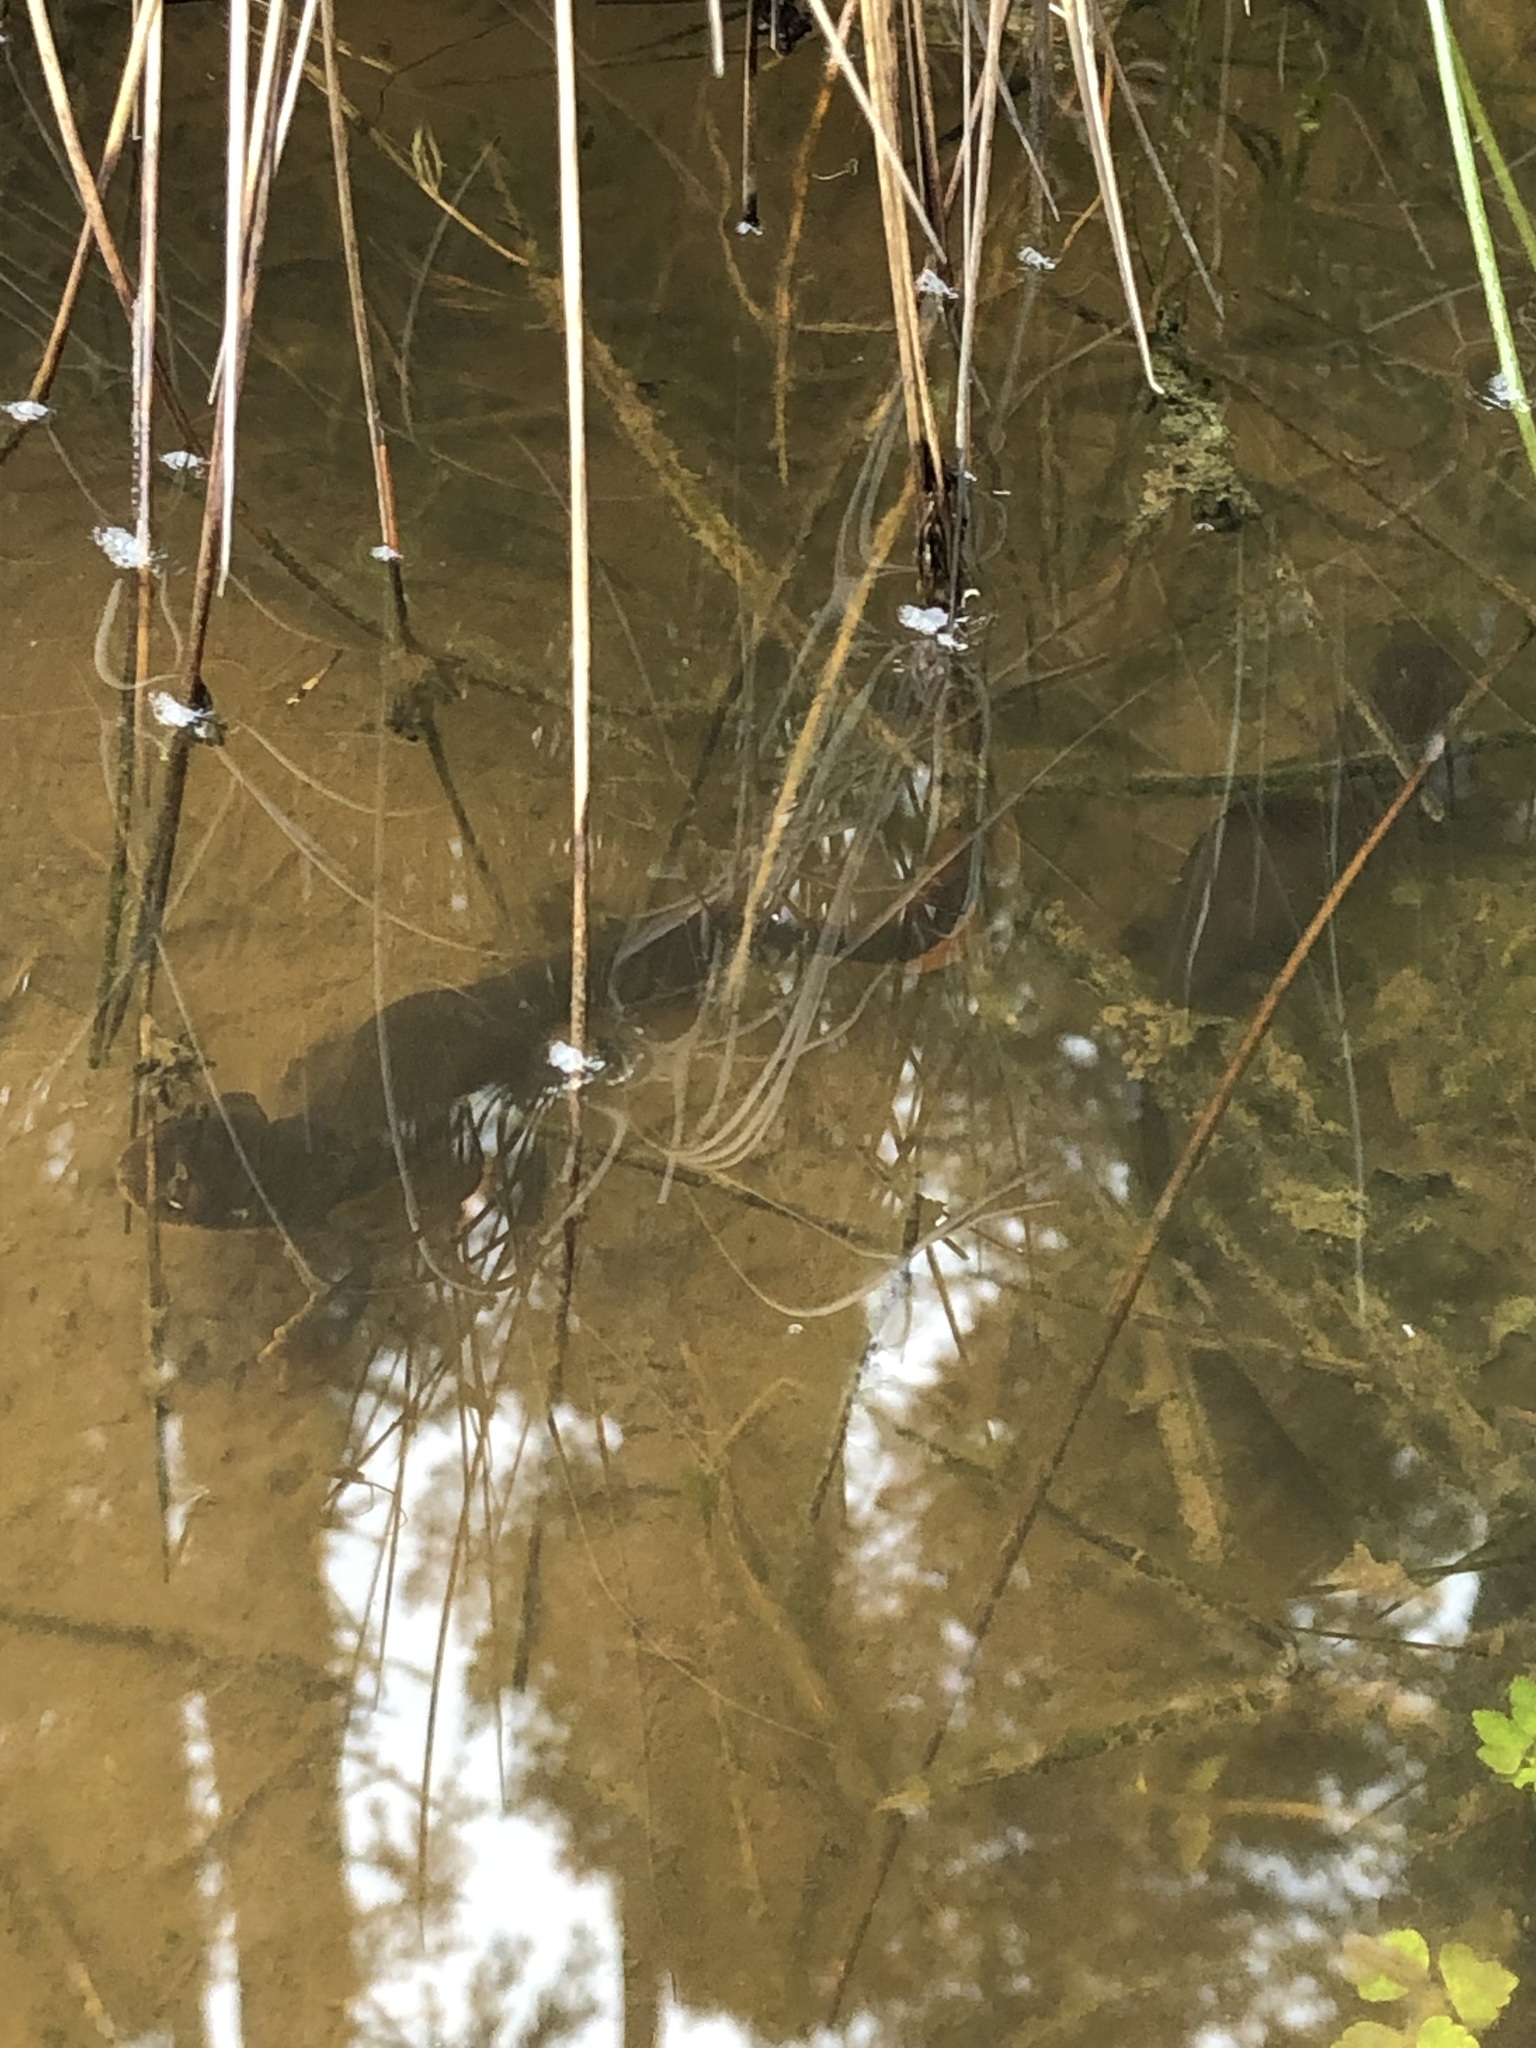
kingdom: Animalia
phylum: Chordata
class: Amphibia
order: Caudata
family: Salamandridae
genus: Taricha
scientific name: Taricha granulosa
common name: Roughskin newt
